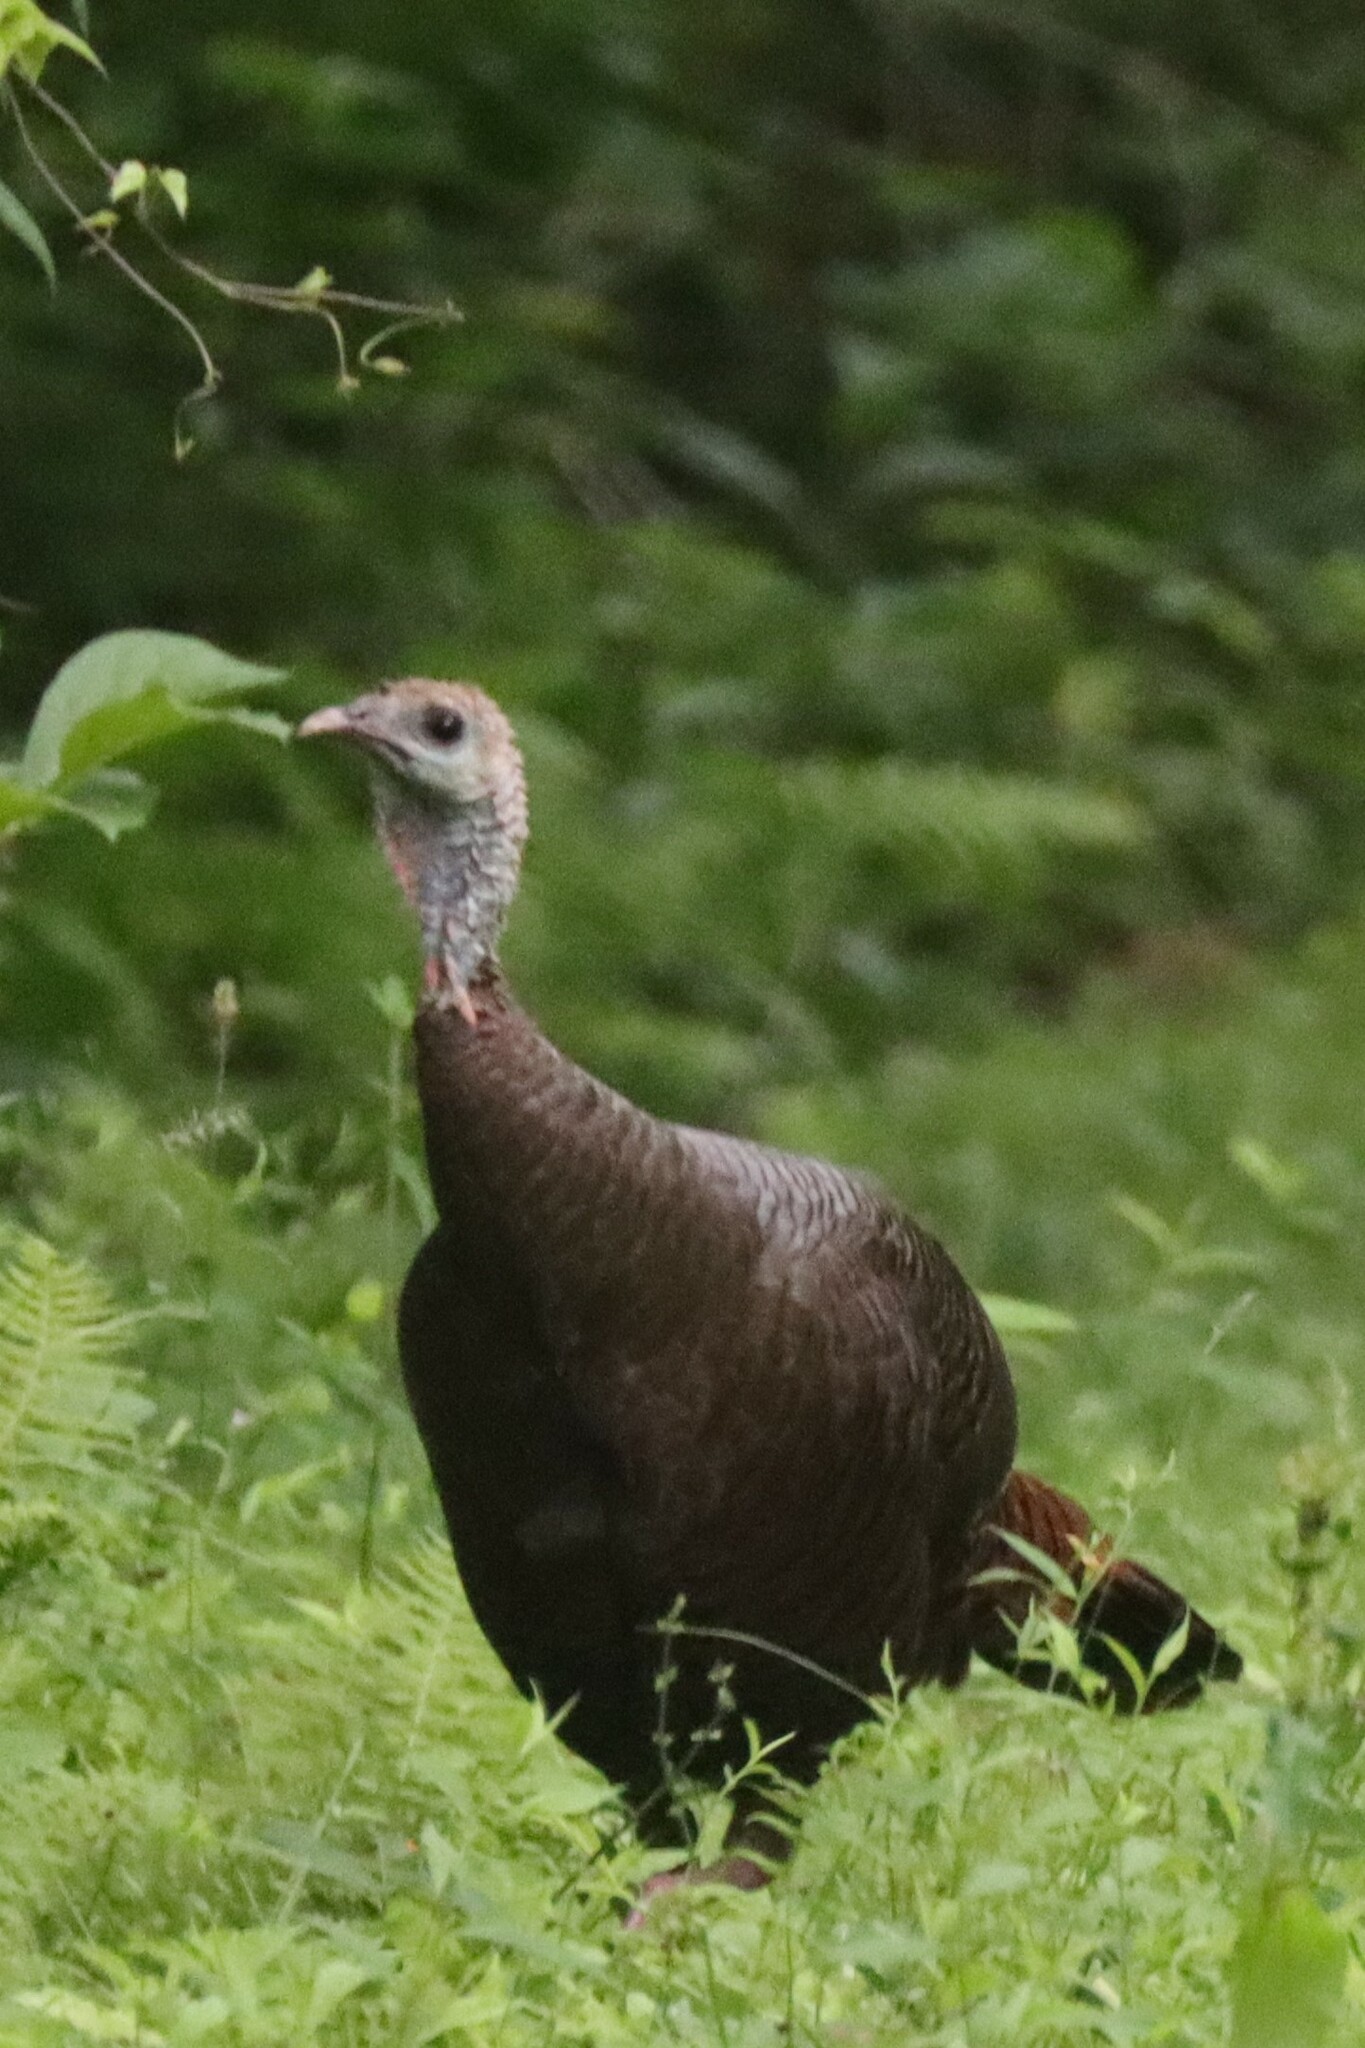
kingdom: Animalia
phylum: Chordata
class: Aves
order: Galliformes
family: Phasianidae
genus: Meleagris
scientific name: Meleagris gallopavo
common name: Wild turkey
